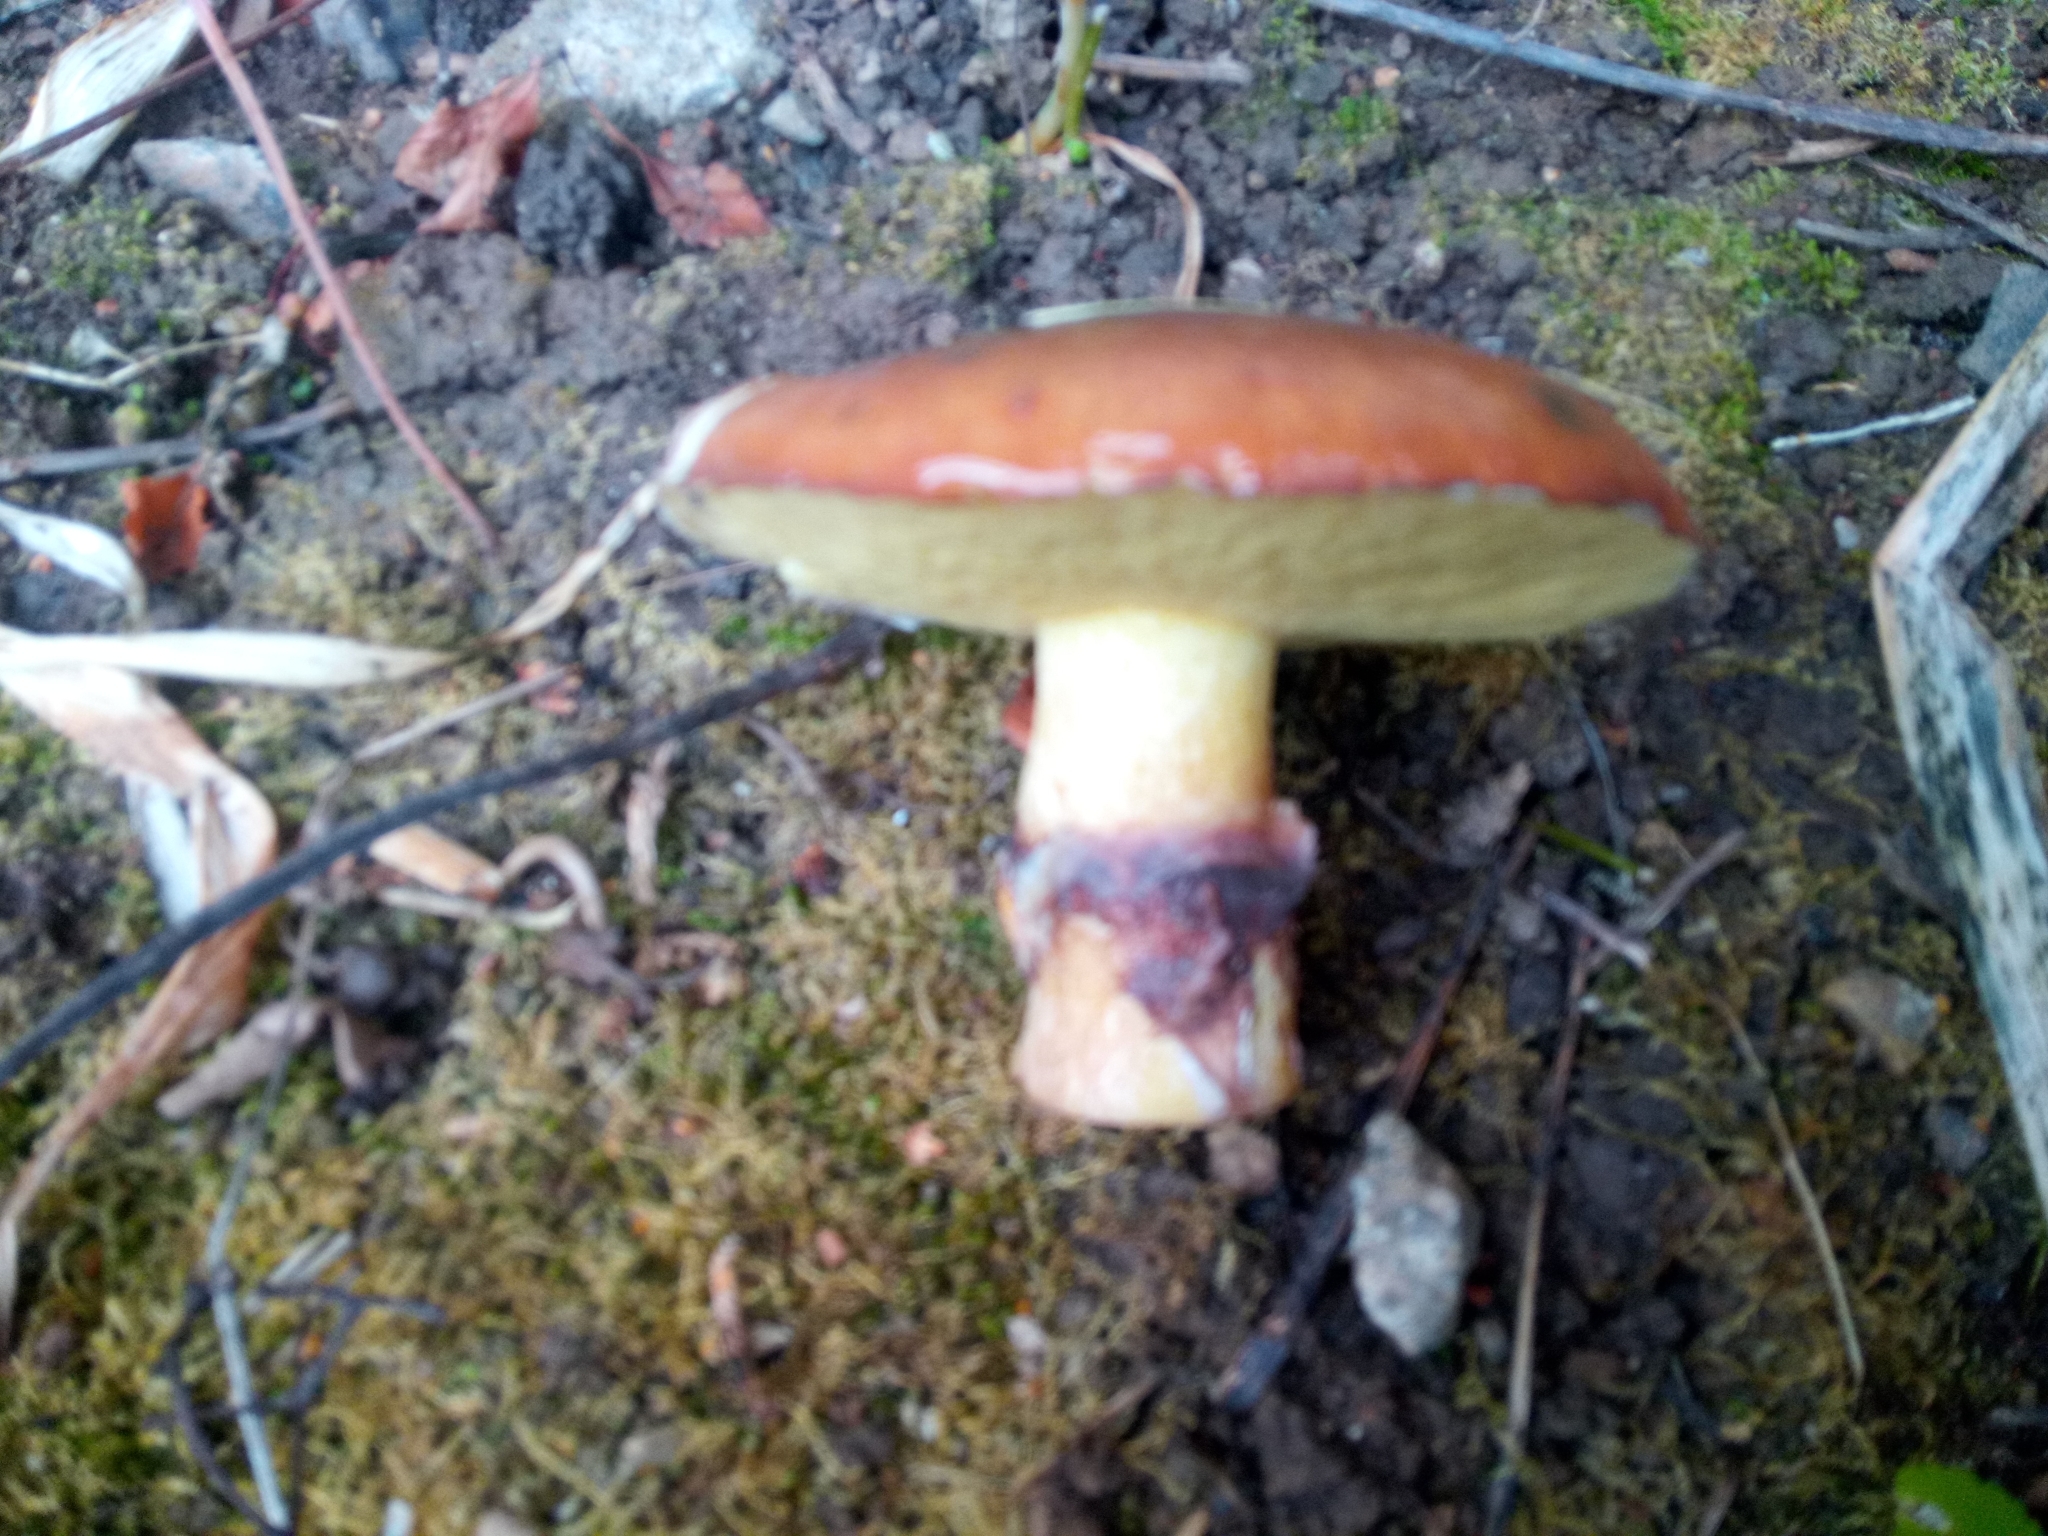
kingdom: Fungi
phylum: Basidiomycota
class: Agaricomycetes
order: Boletales
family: Suillaceae
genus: Suillus
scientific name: Suillus luteus
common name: Slippery jack
